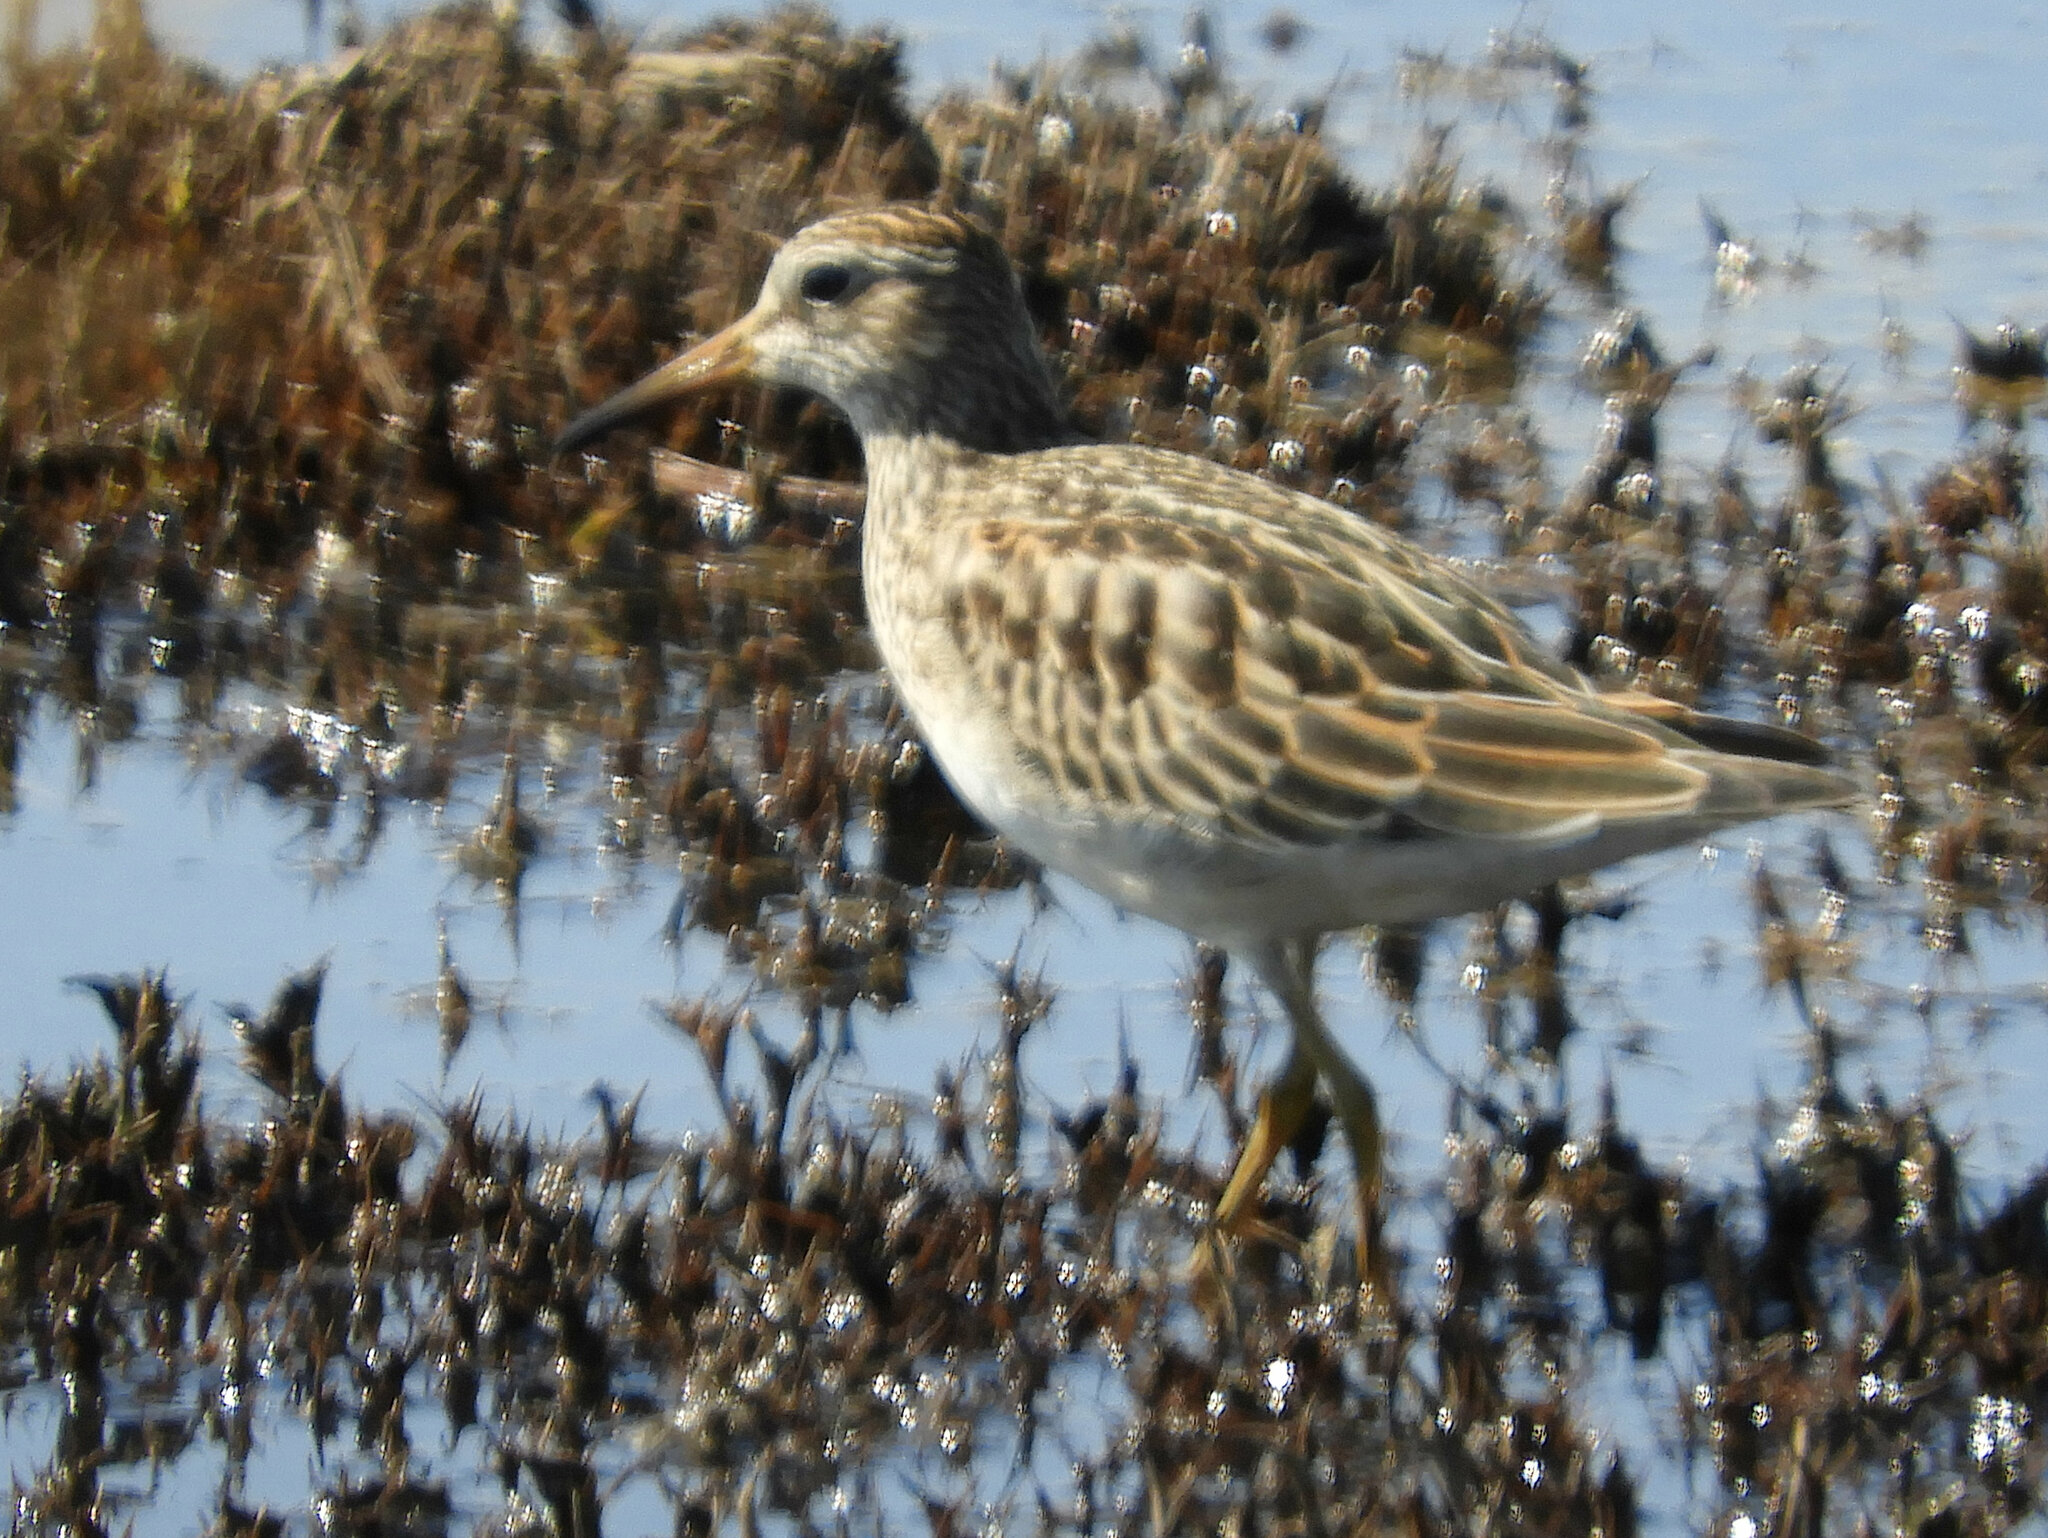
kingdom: Animalia
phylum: Chordata
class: Aves
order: Charadriiformes
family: Scolopacidae
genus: Calidris
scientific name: Calidris melanotos
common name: Pectoral sandpiper
